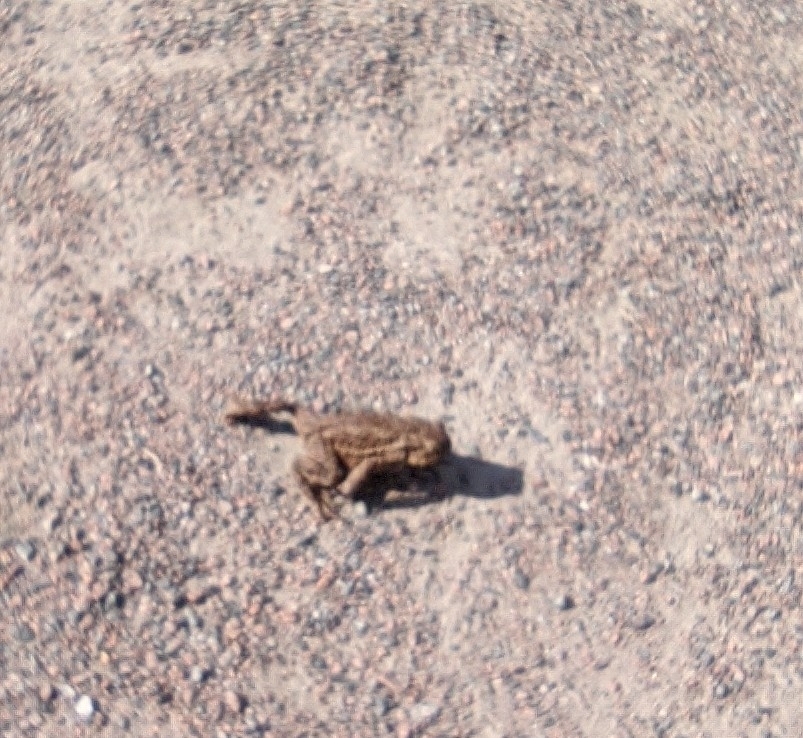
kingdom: Animalia
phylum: Chordata
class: Amphibia
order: Anura
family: Bufonidae
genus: Bufo
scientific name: Bufo bufo
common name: Common toad
